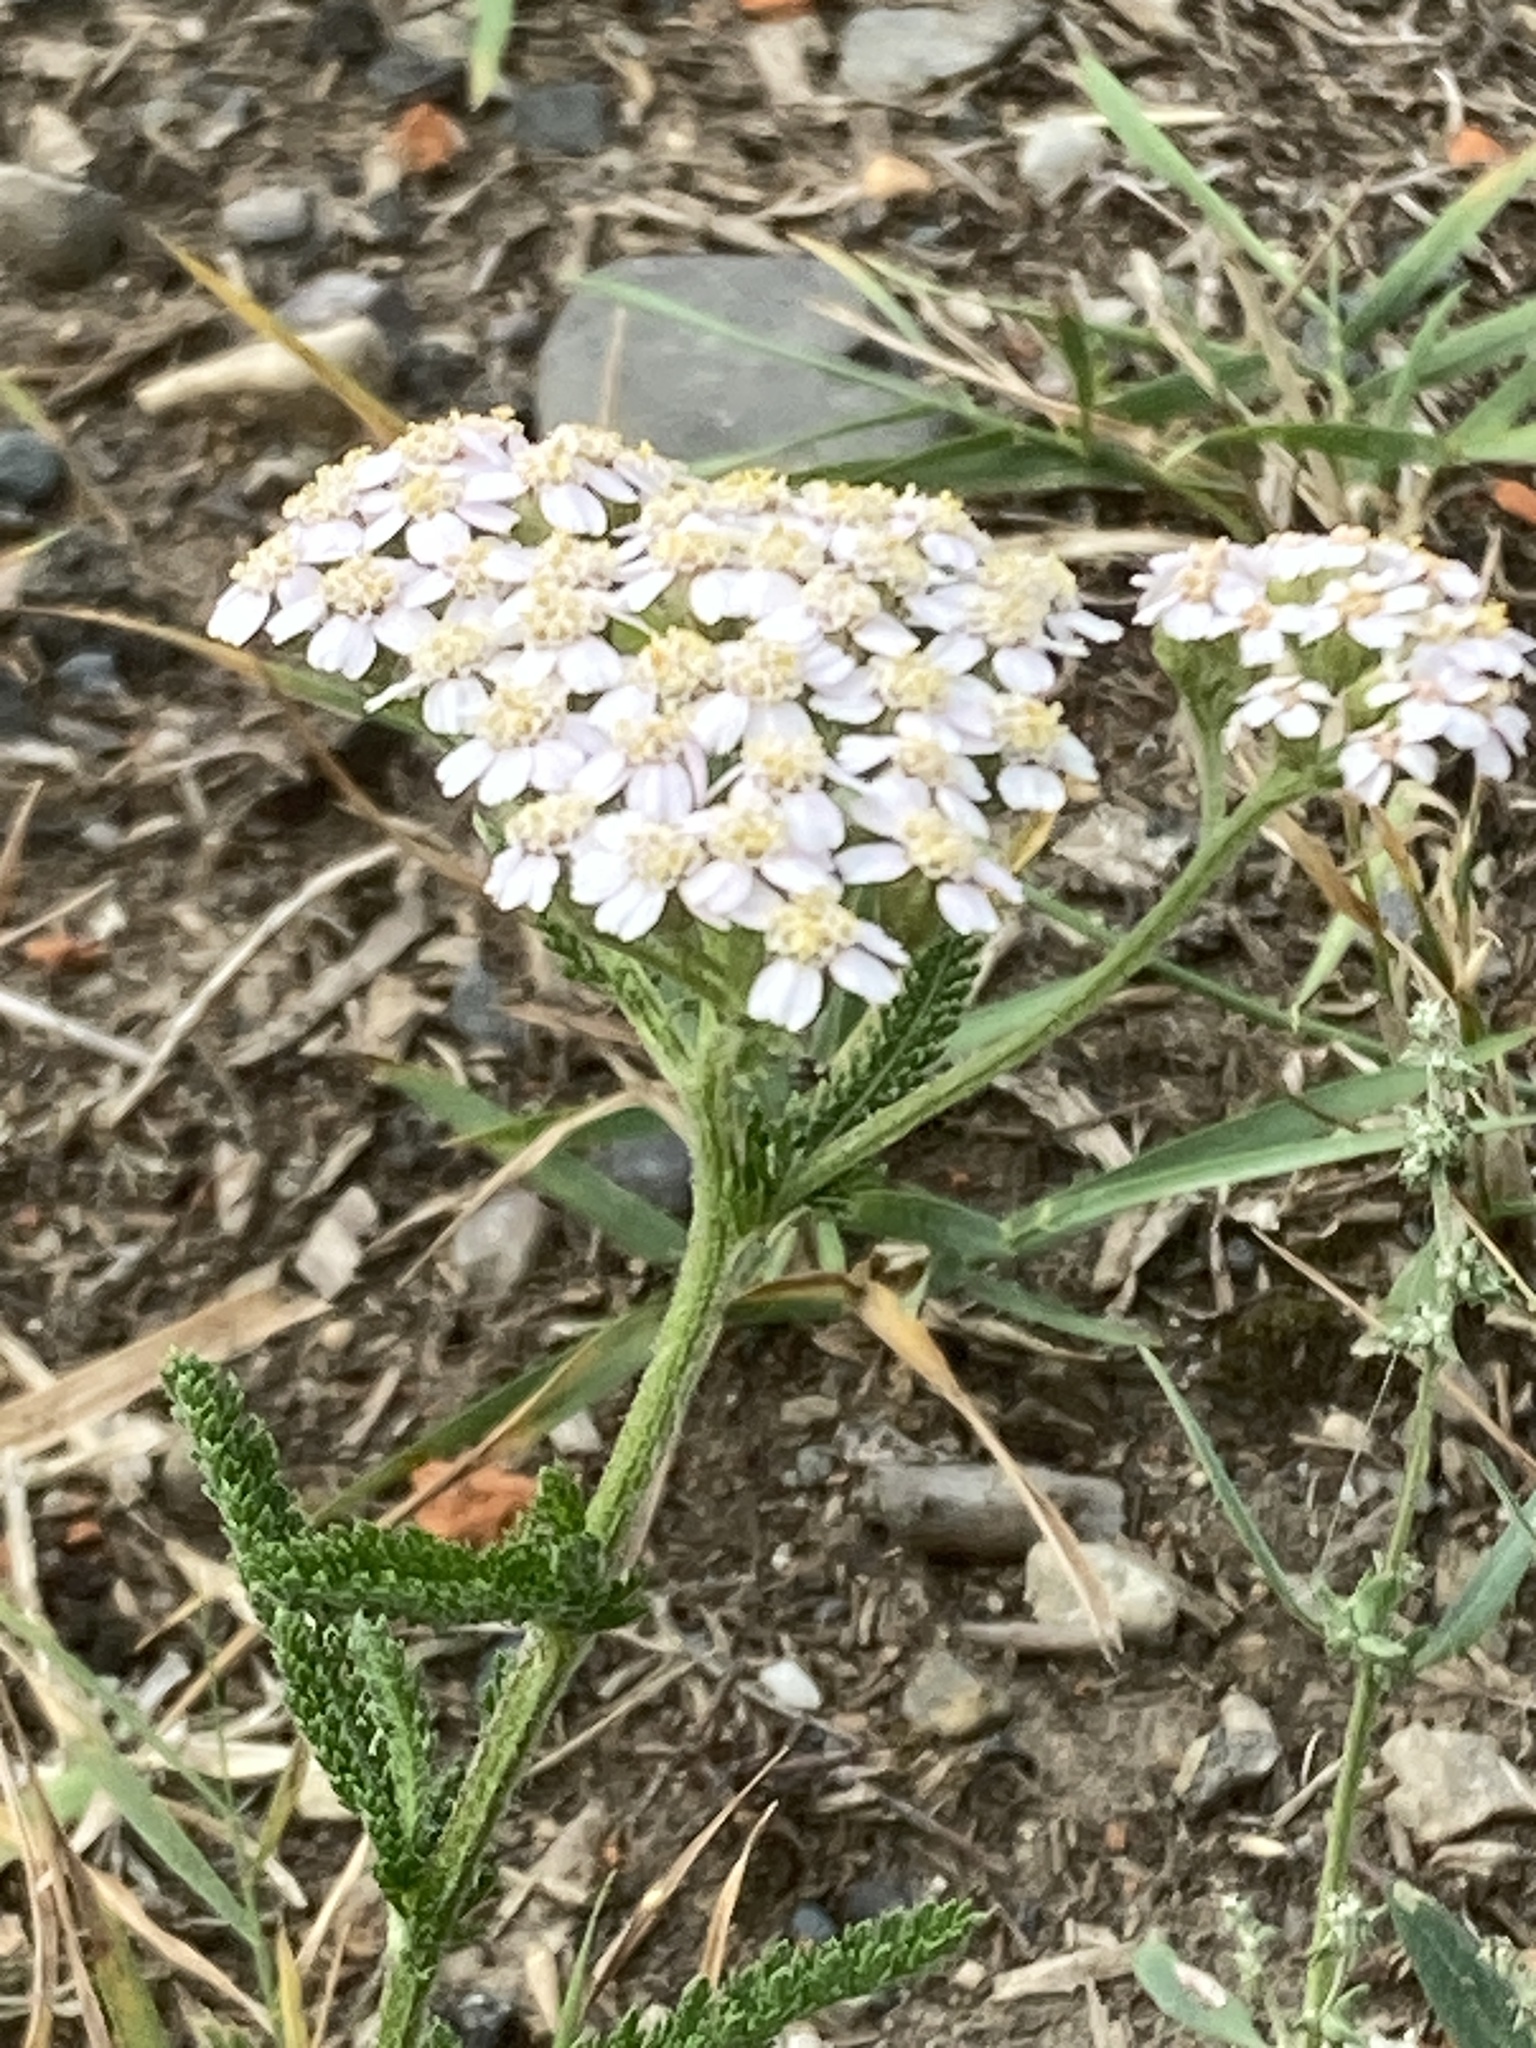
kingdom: Plantae
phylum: Tracheophyta
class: Magnoliopsida
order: Asterales
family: Asteraceae
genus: Achillea
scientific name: Achillea millefolium
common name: Yarrow
